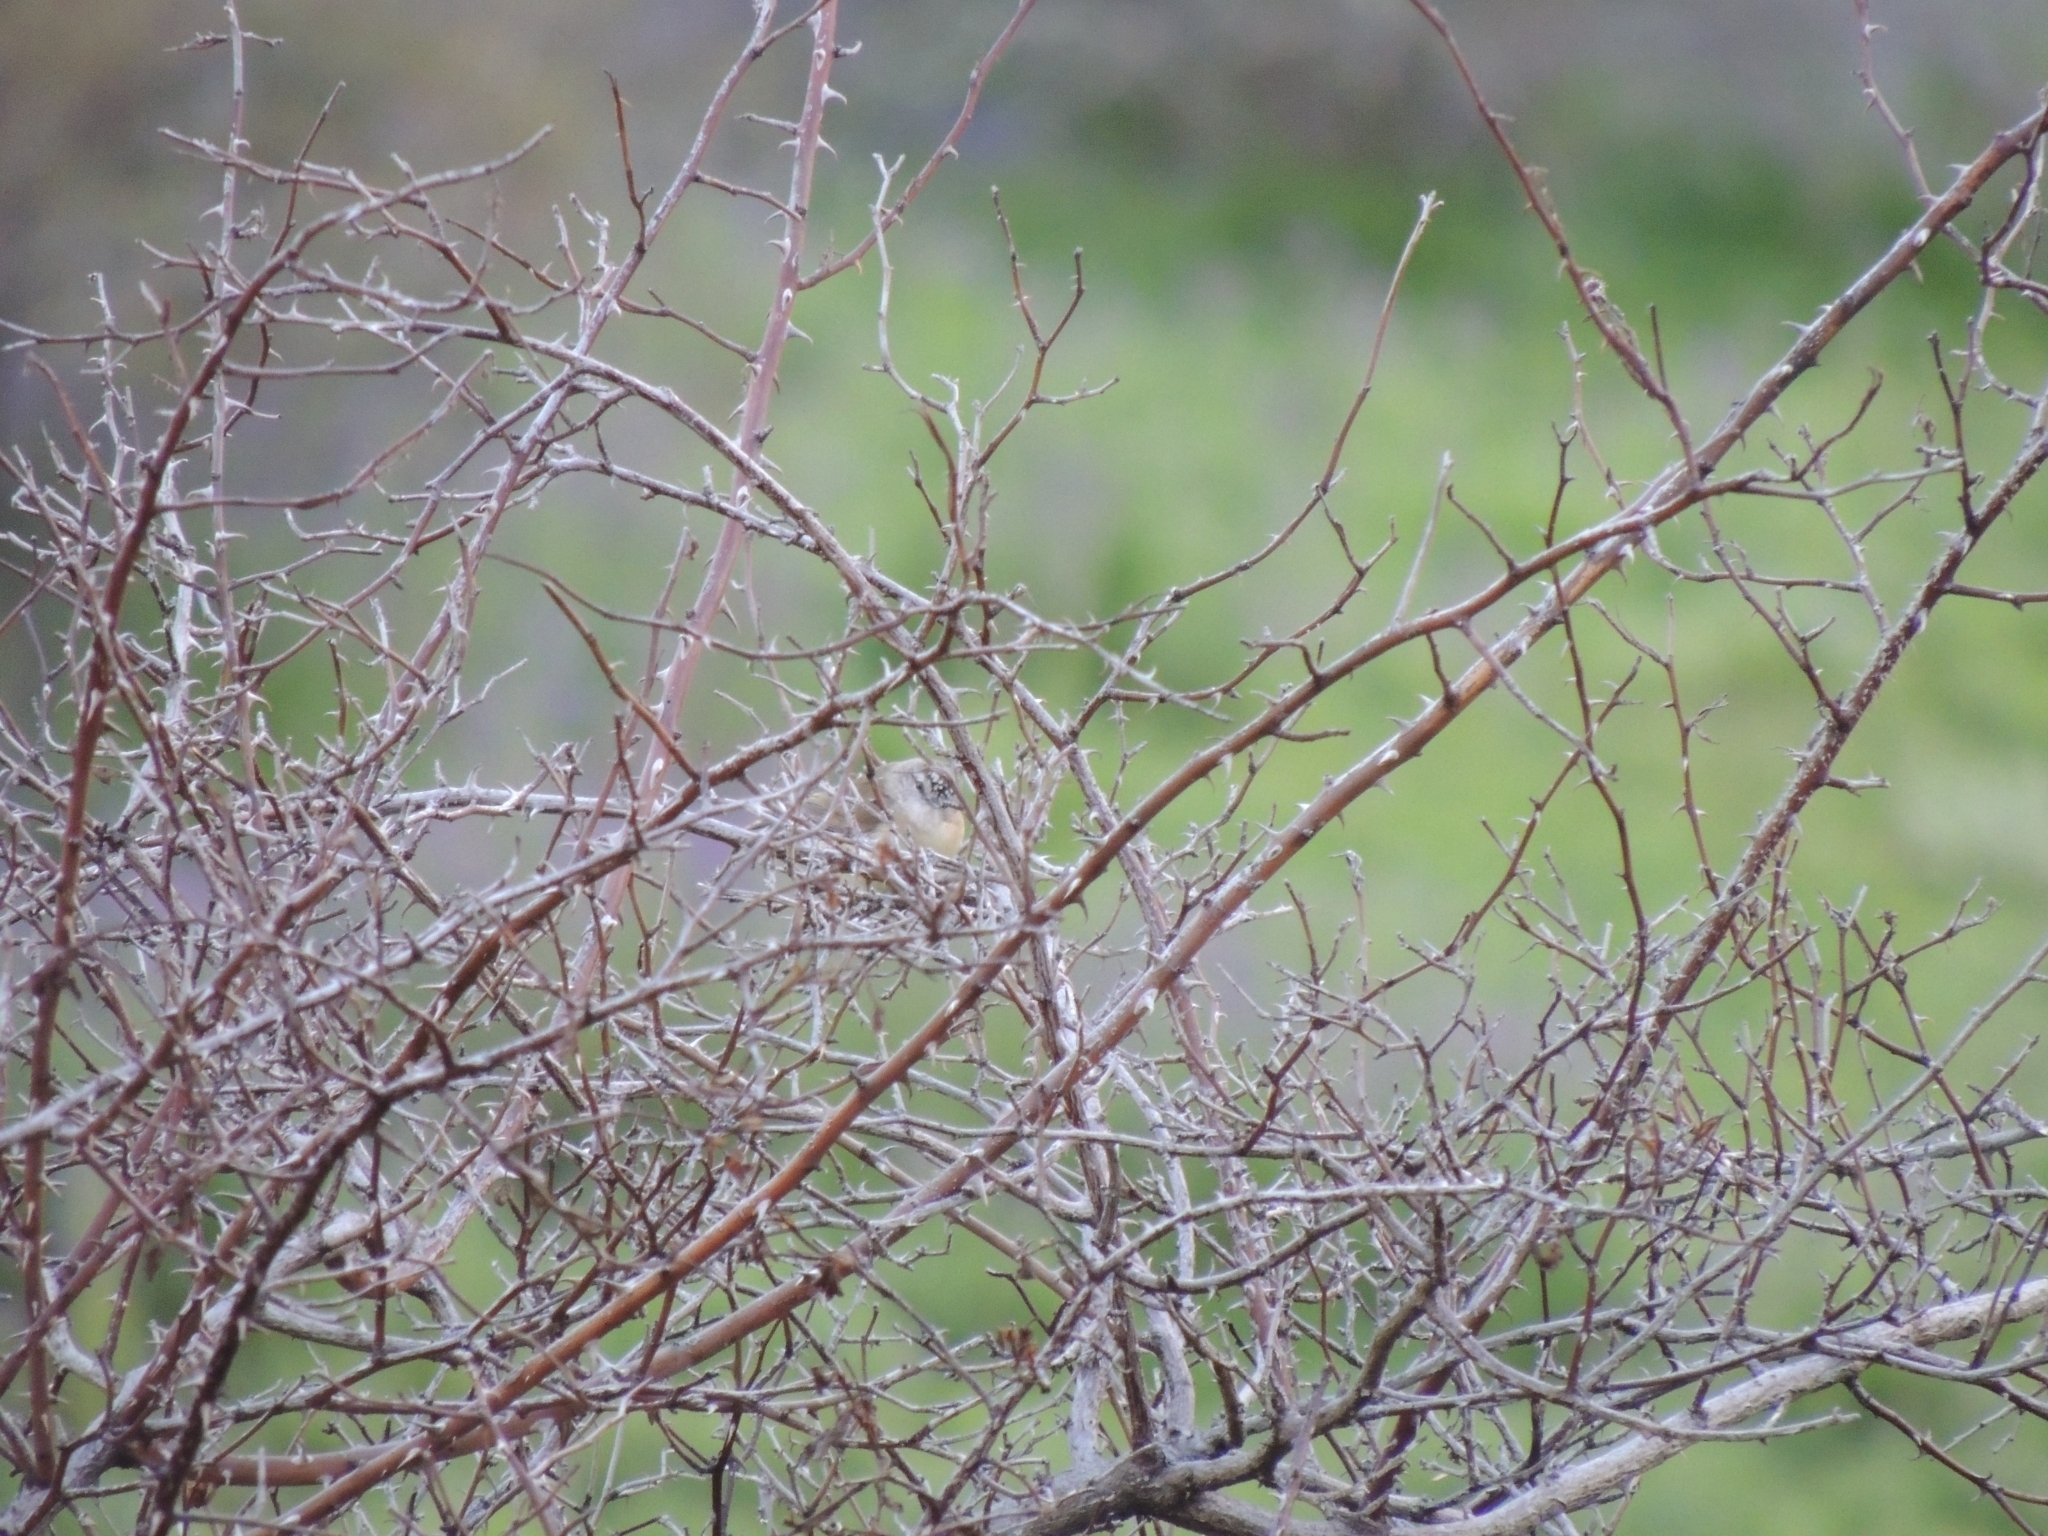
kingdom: Animalia
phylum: Chordata
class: Aves
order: Passeriformes
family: Acanthizidae
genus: Acanthiza
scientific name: Acanthiza chrysorrhoa
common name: Yellow-rumped thornbill
